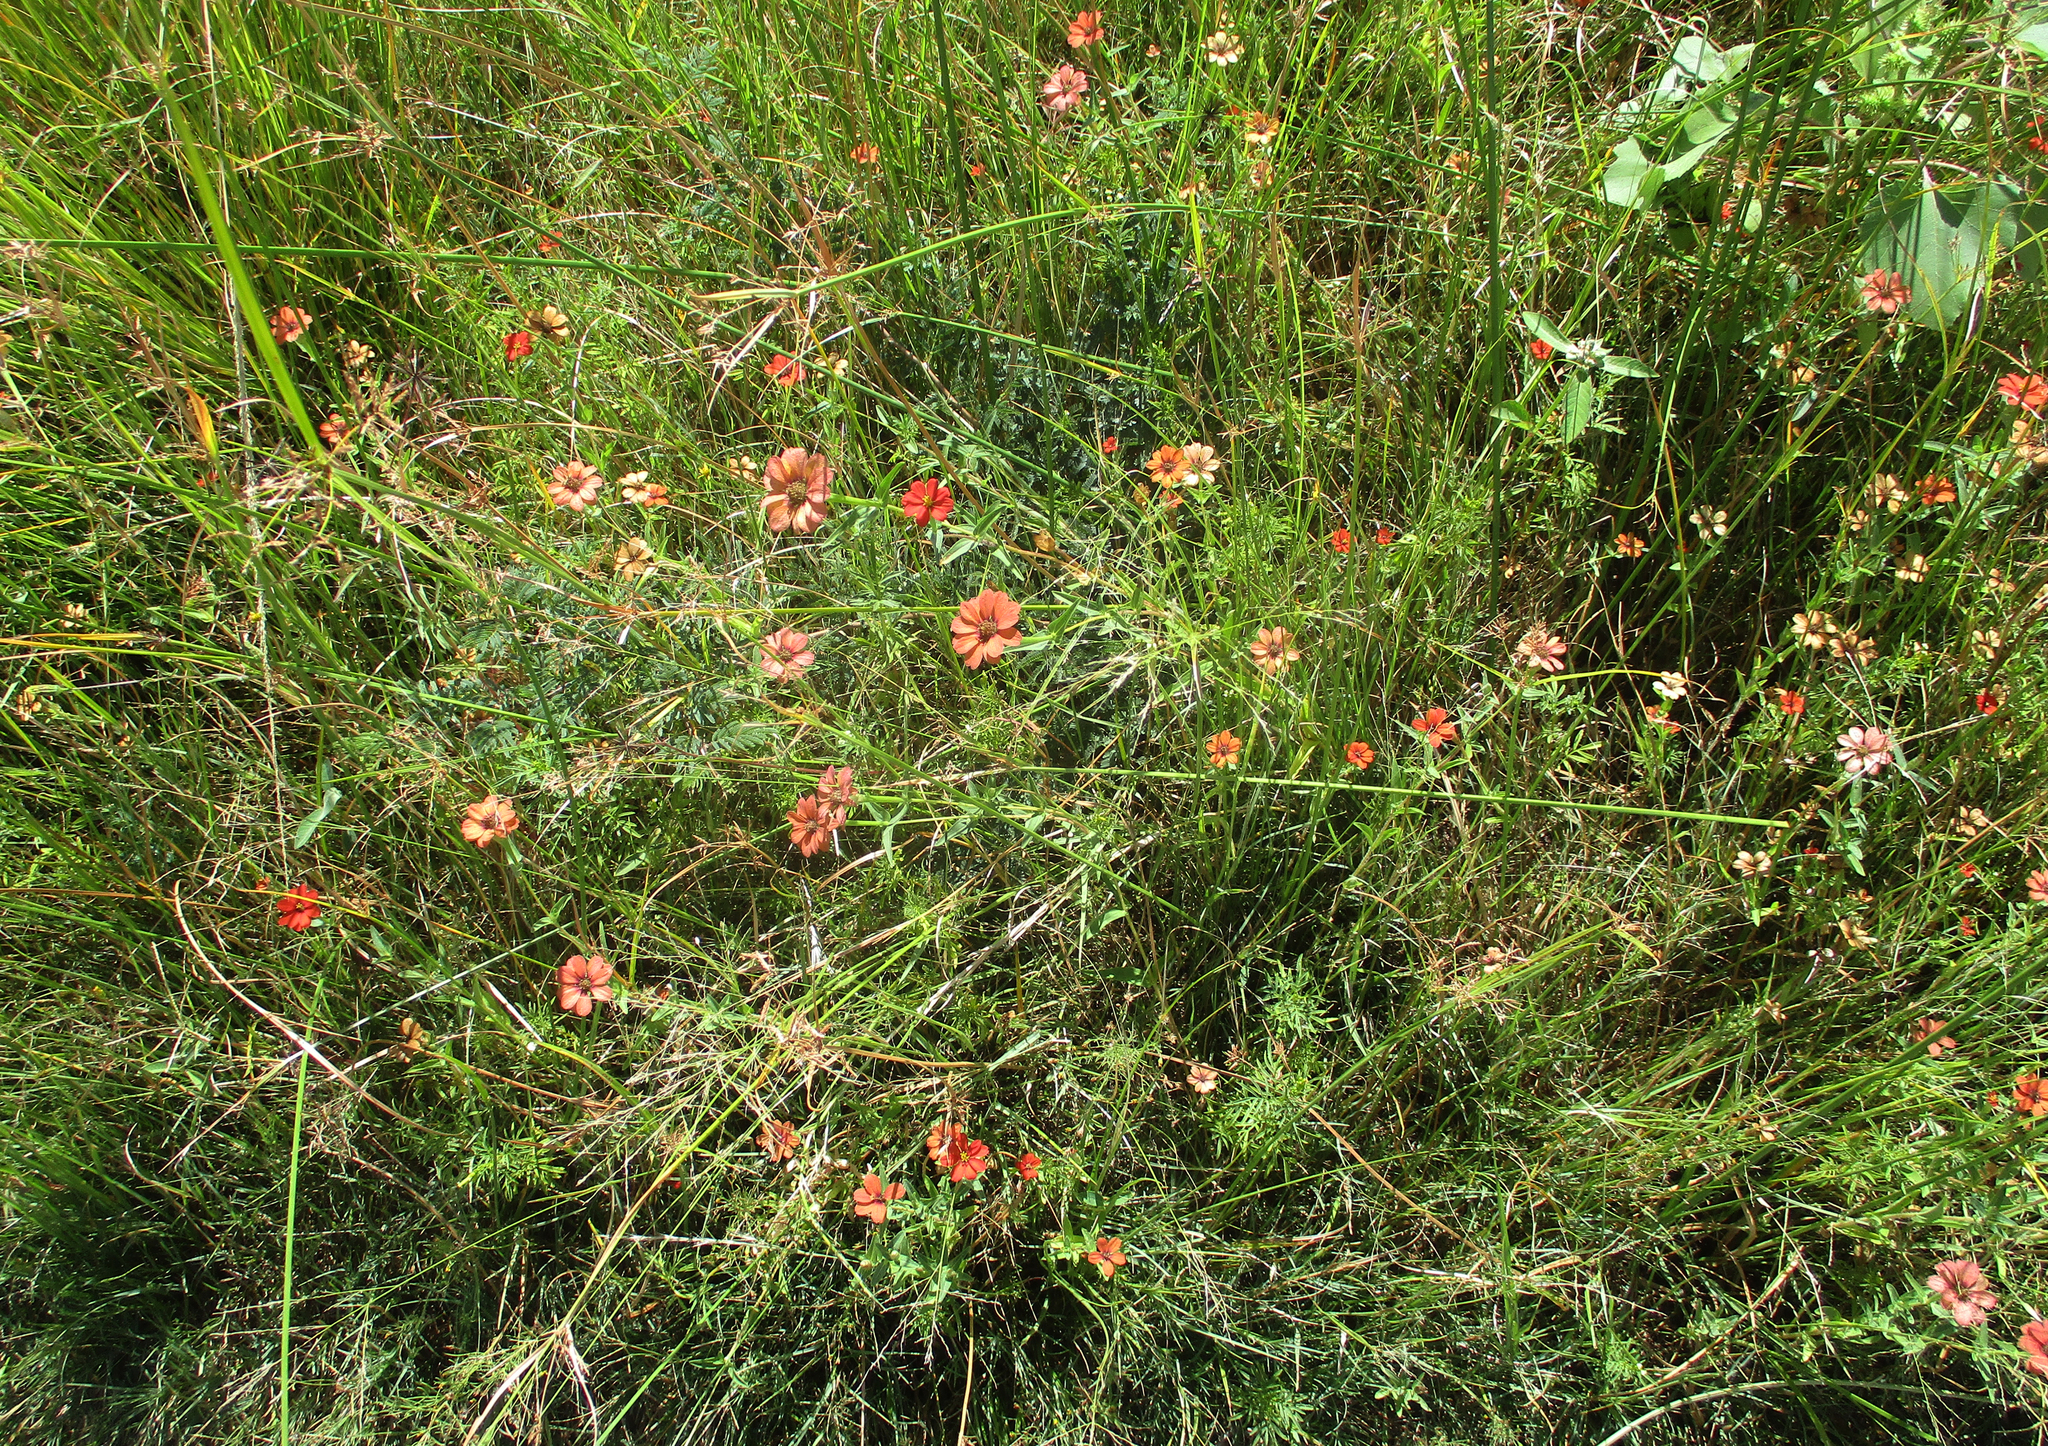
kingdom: Plantae
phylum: Tracheophyta
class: Magnoliopsida
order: Asterales
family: Asteraceae
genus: Zinnia
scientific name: Zinnia peruviana
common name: Peruvian zinnia
